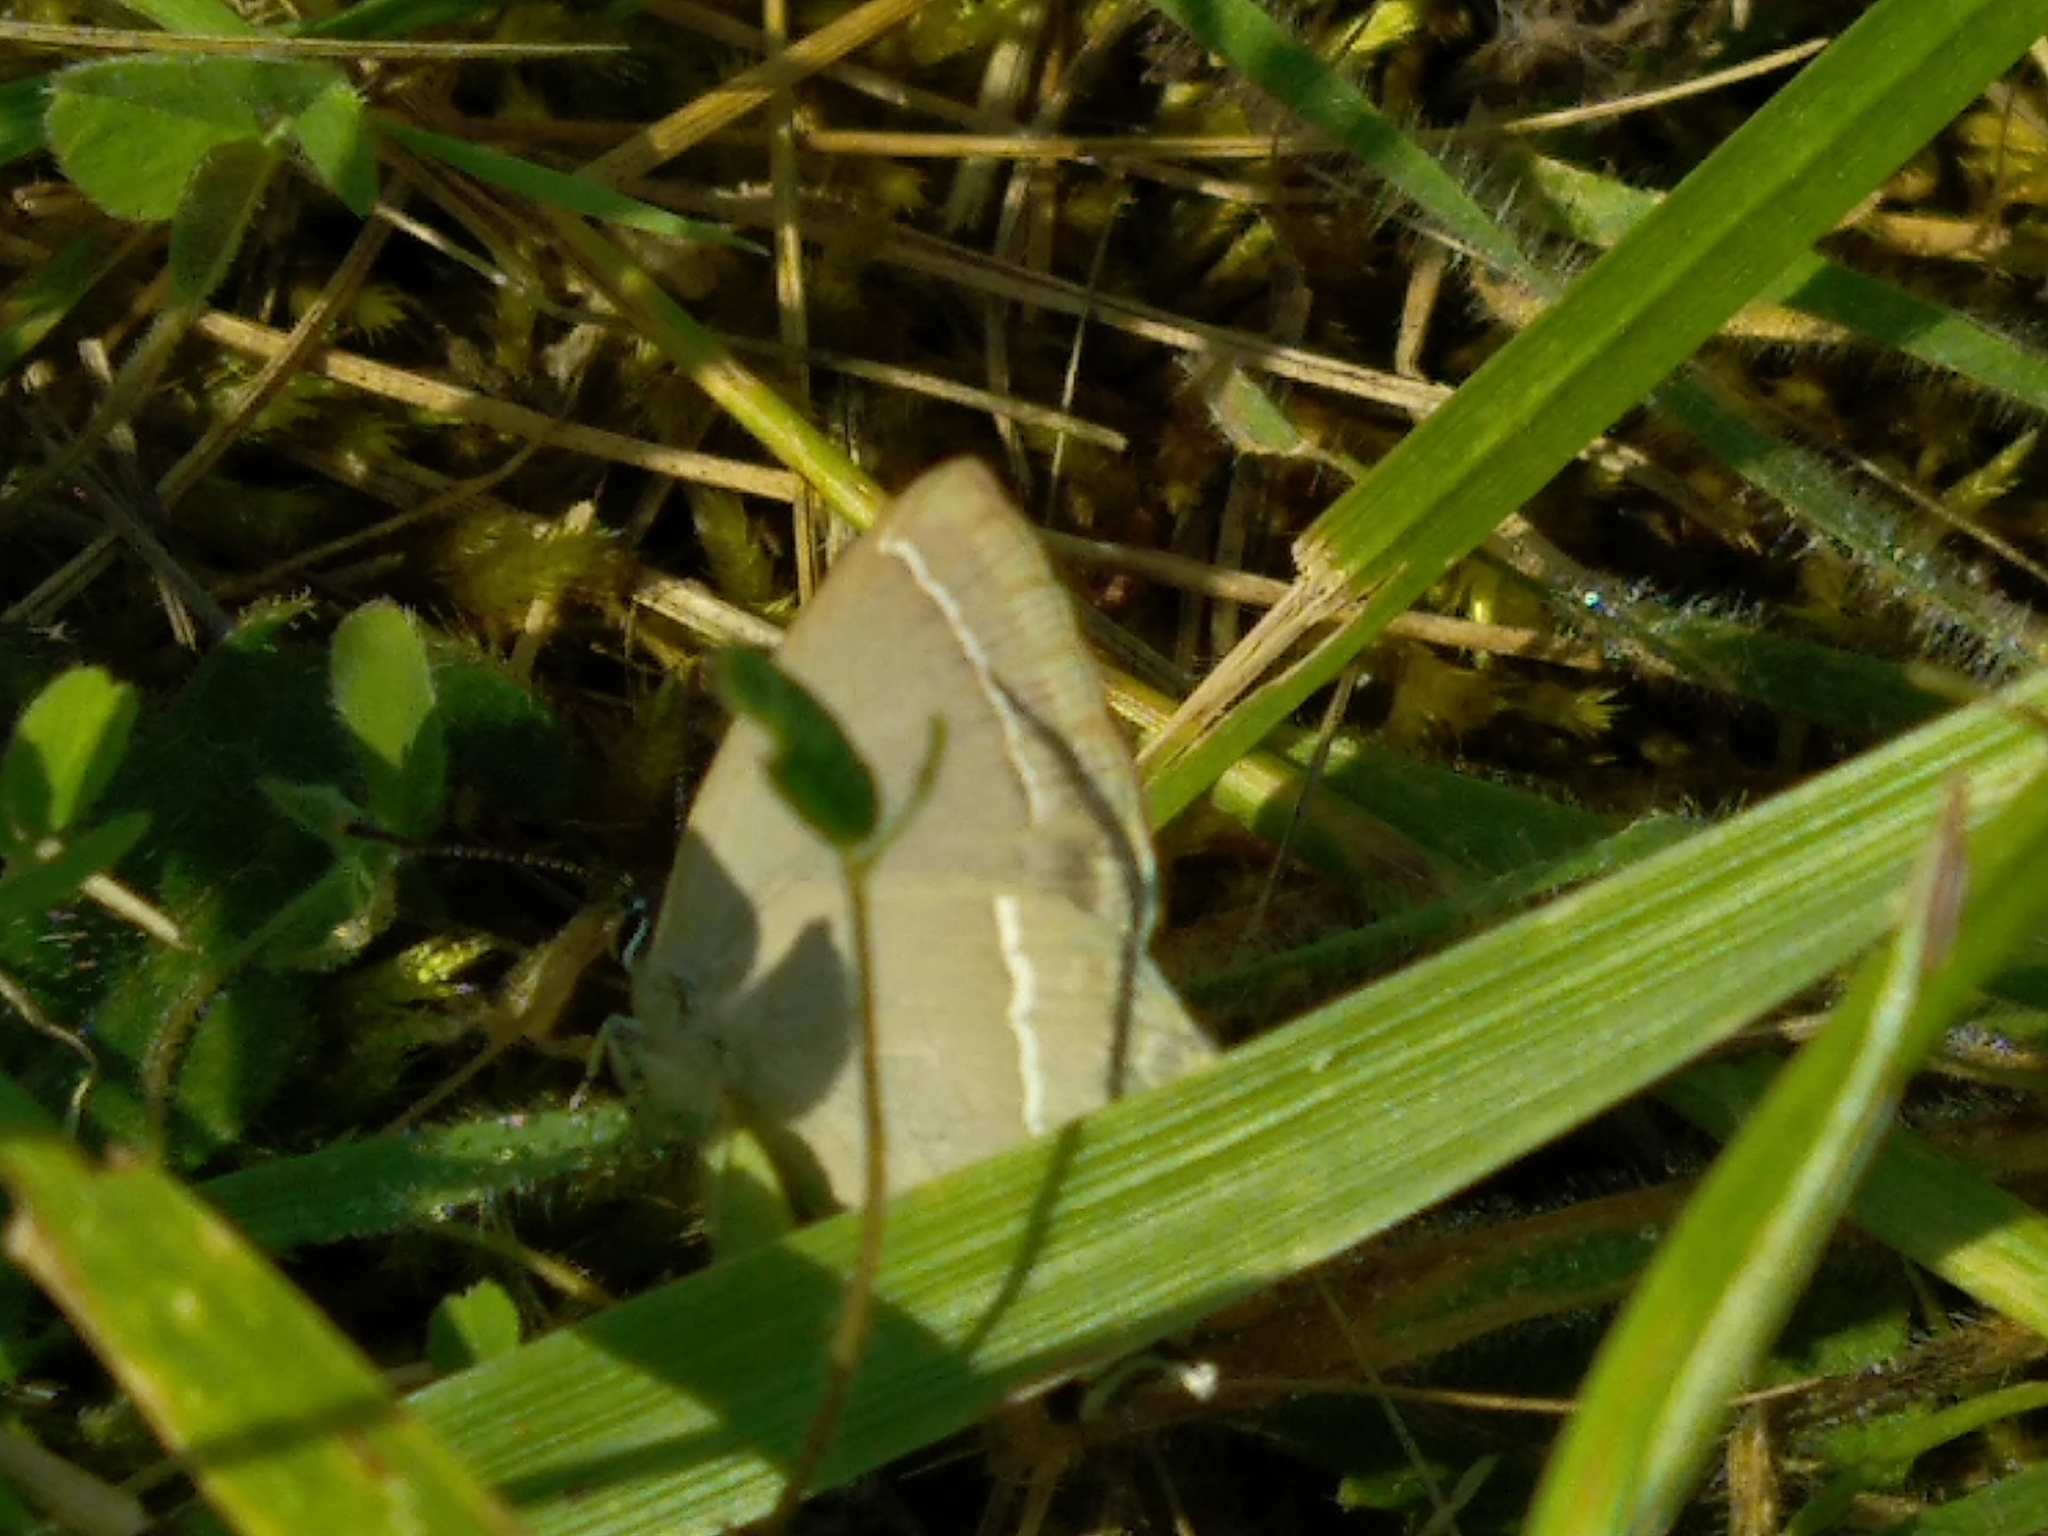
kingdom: Animalia
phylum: Arthropoda
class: Insecta
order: Lepidoptera
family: Lycaenidae
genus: Quercusia
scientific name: Quercusia quercus
